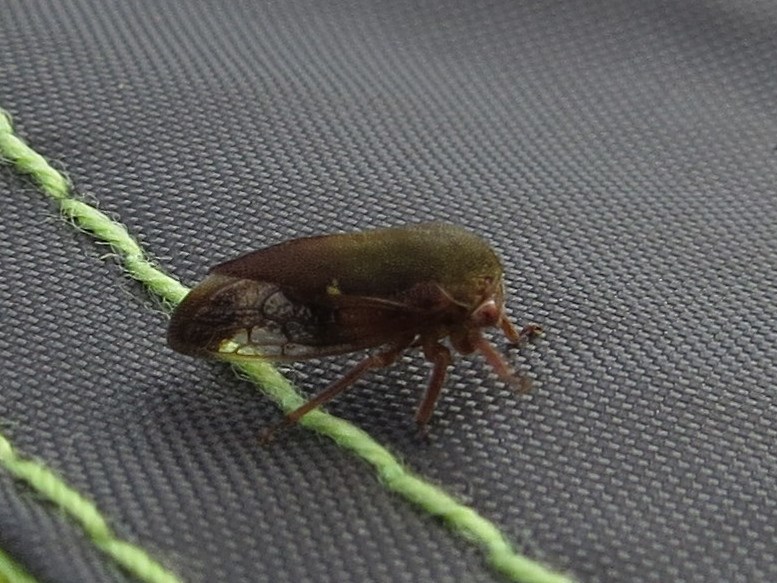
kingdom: Animalia
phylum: Arthropoda
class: Insecta
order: Hemiptera
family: Membracidae
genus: Ophiderma
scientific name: Ophiderma flava
